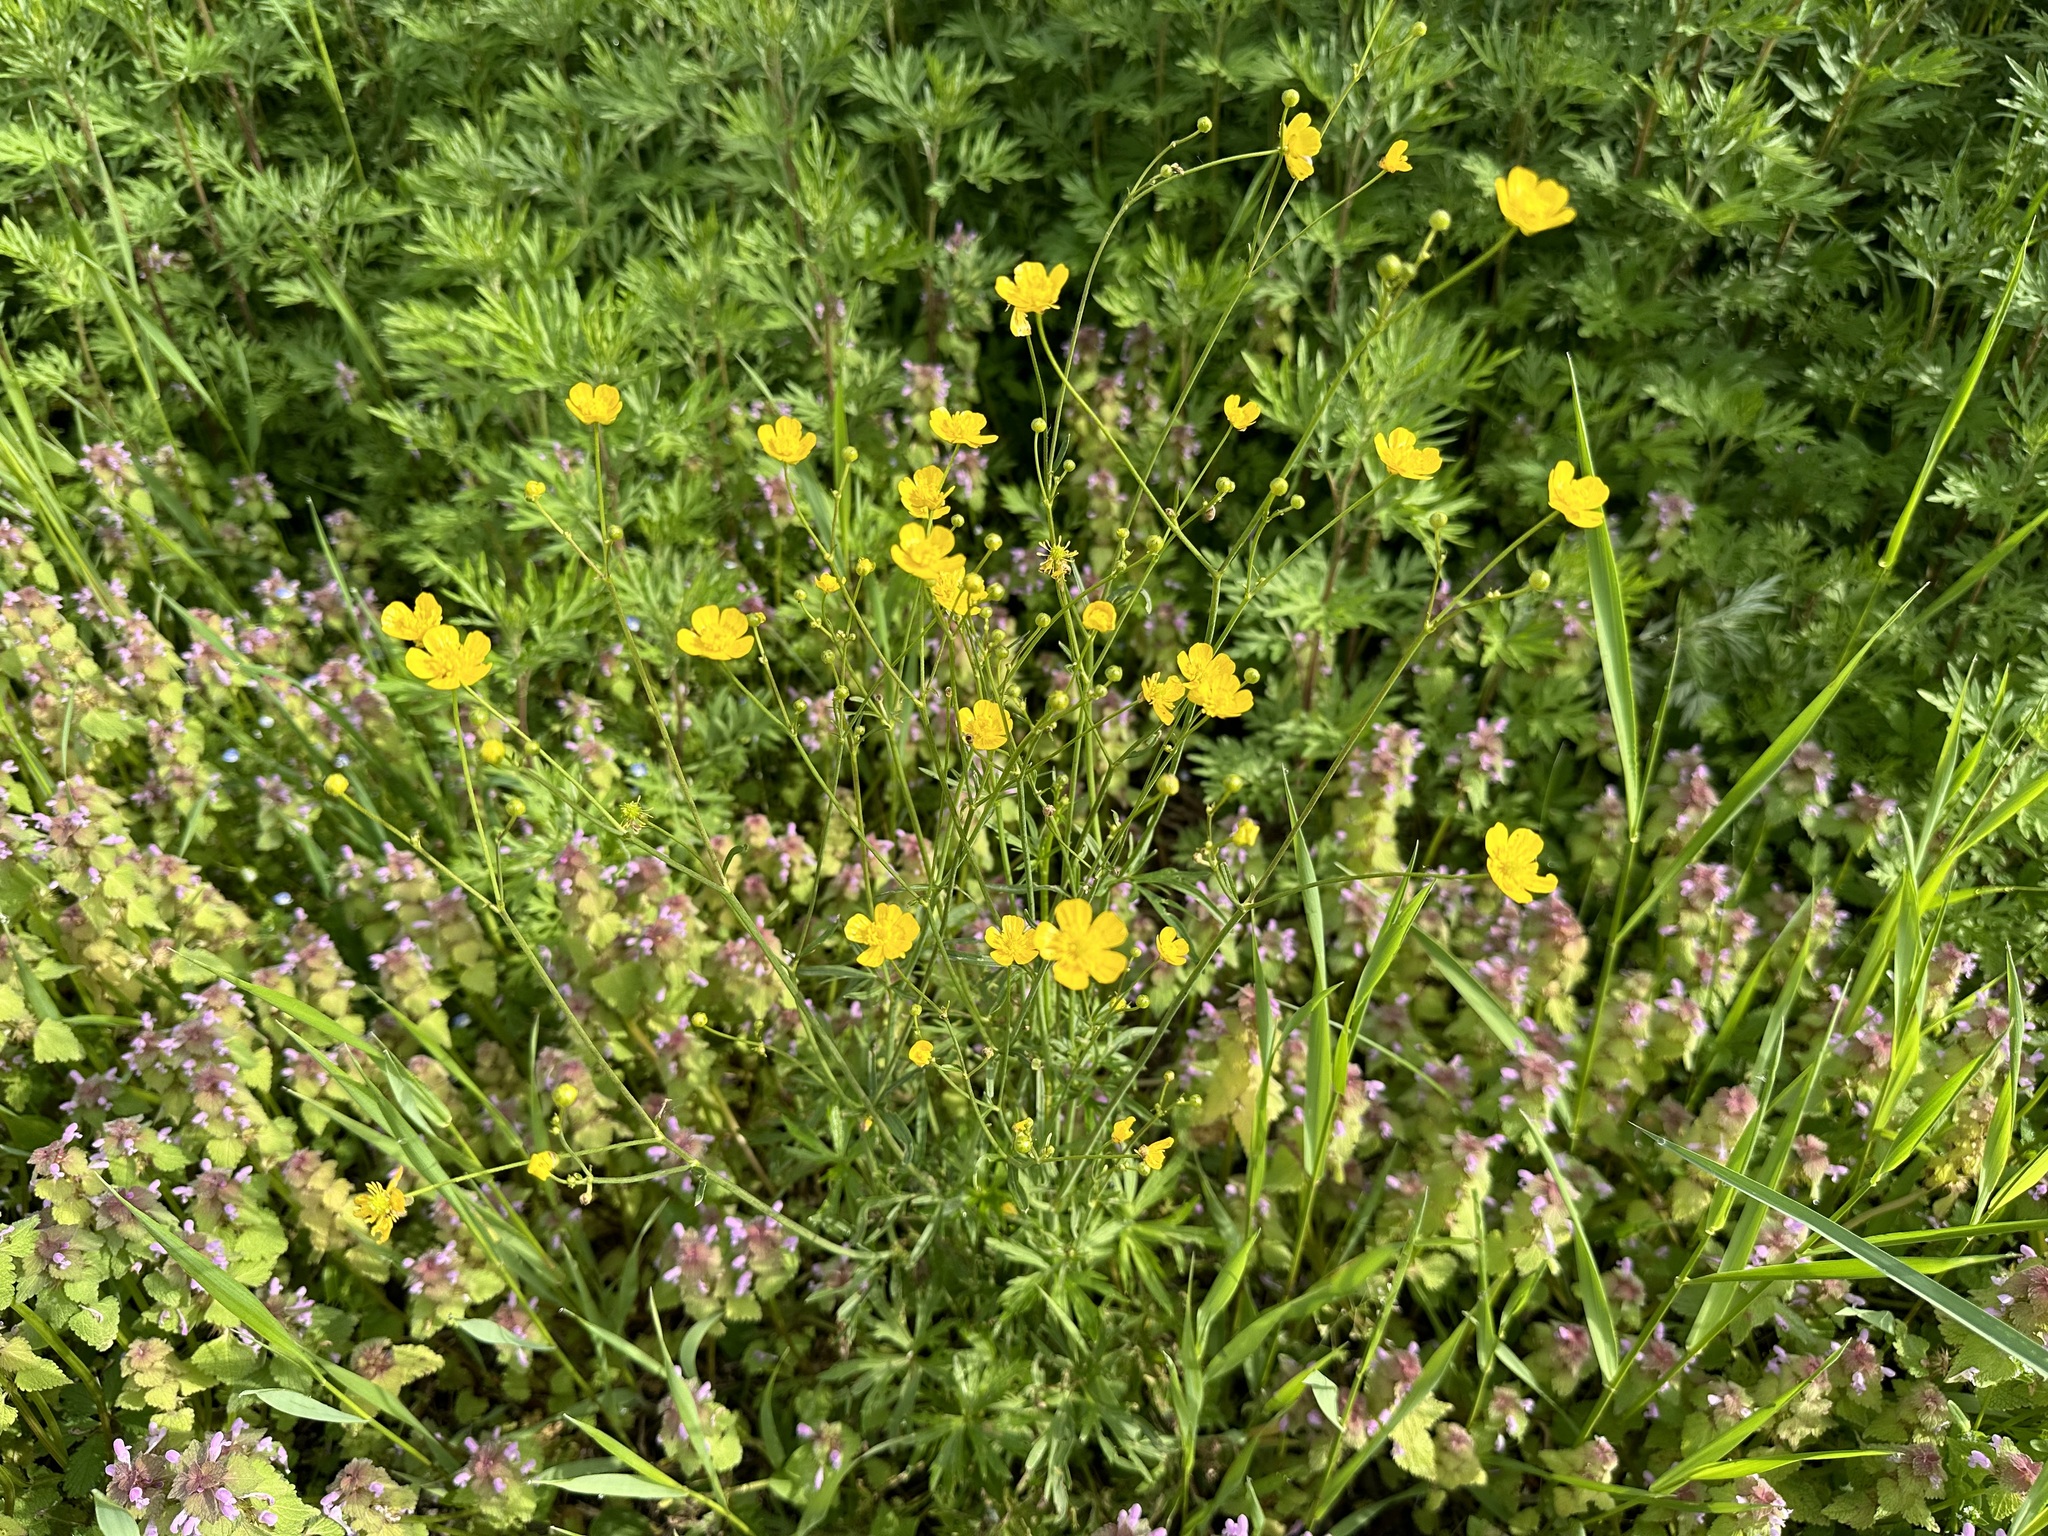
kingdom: Plantae
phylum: Tracheophyta
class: Magnoliopsida
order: Ranunculales
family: Ranunculaceae
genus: Ranunculus
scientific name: Ranunculus acris
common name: Meadow buttercup
